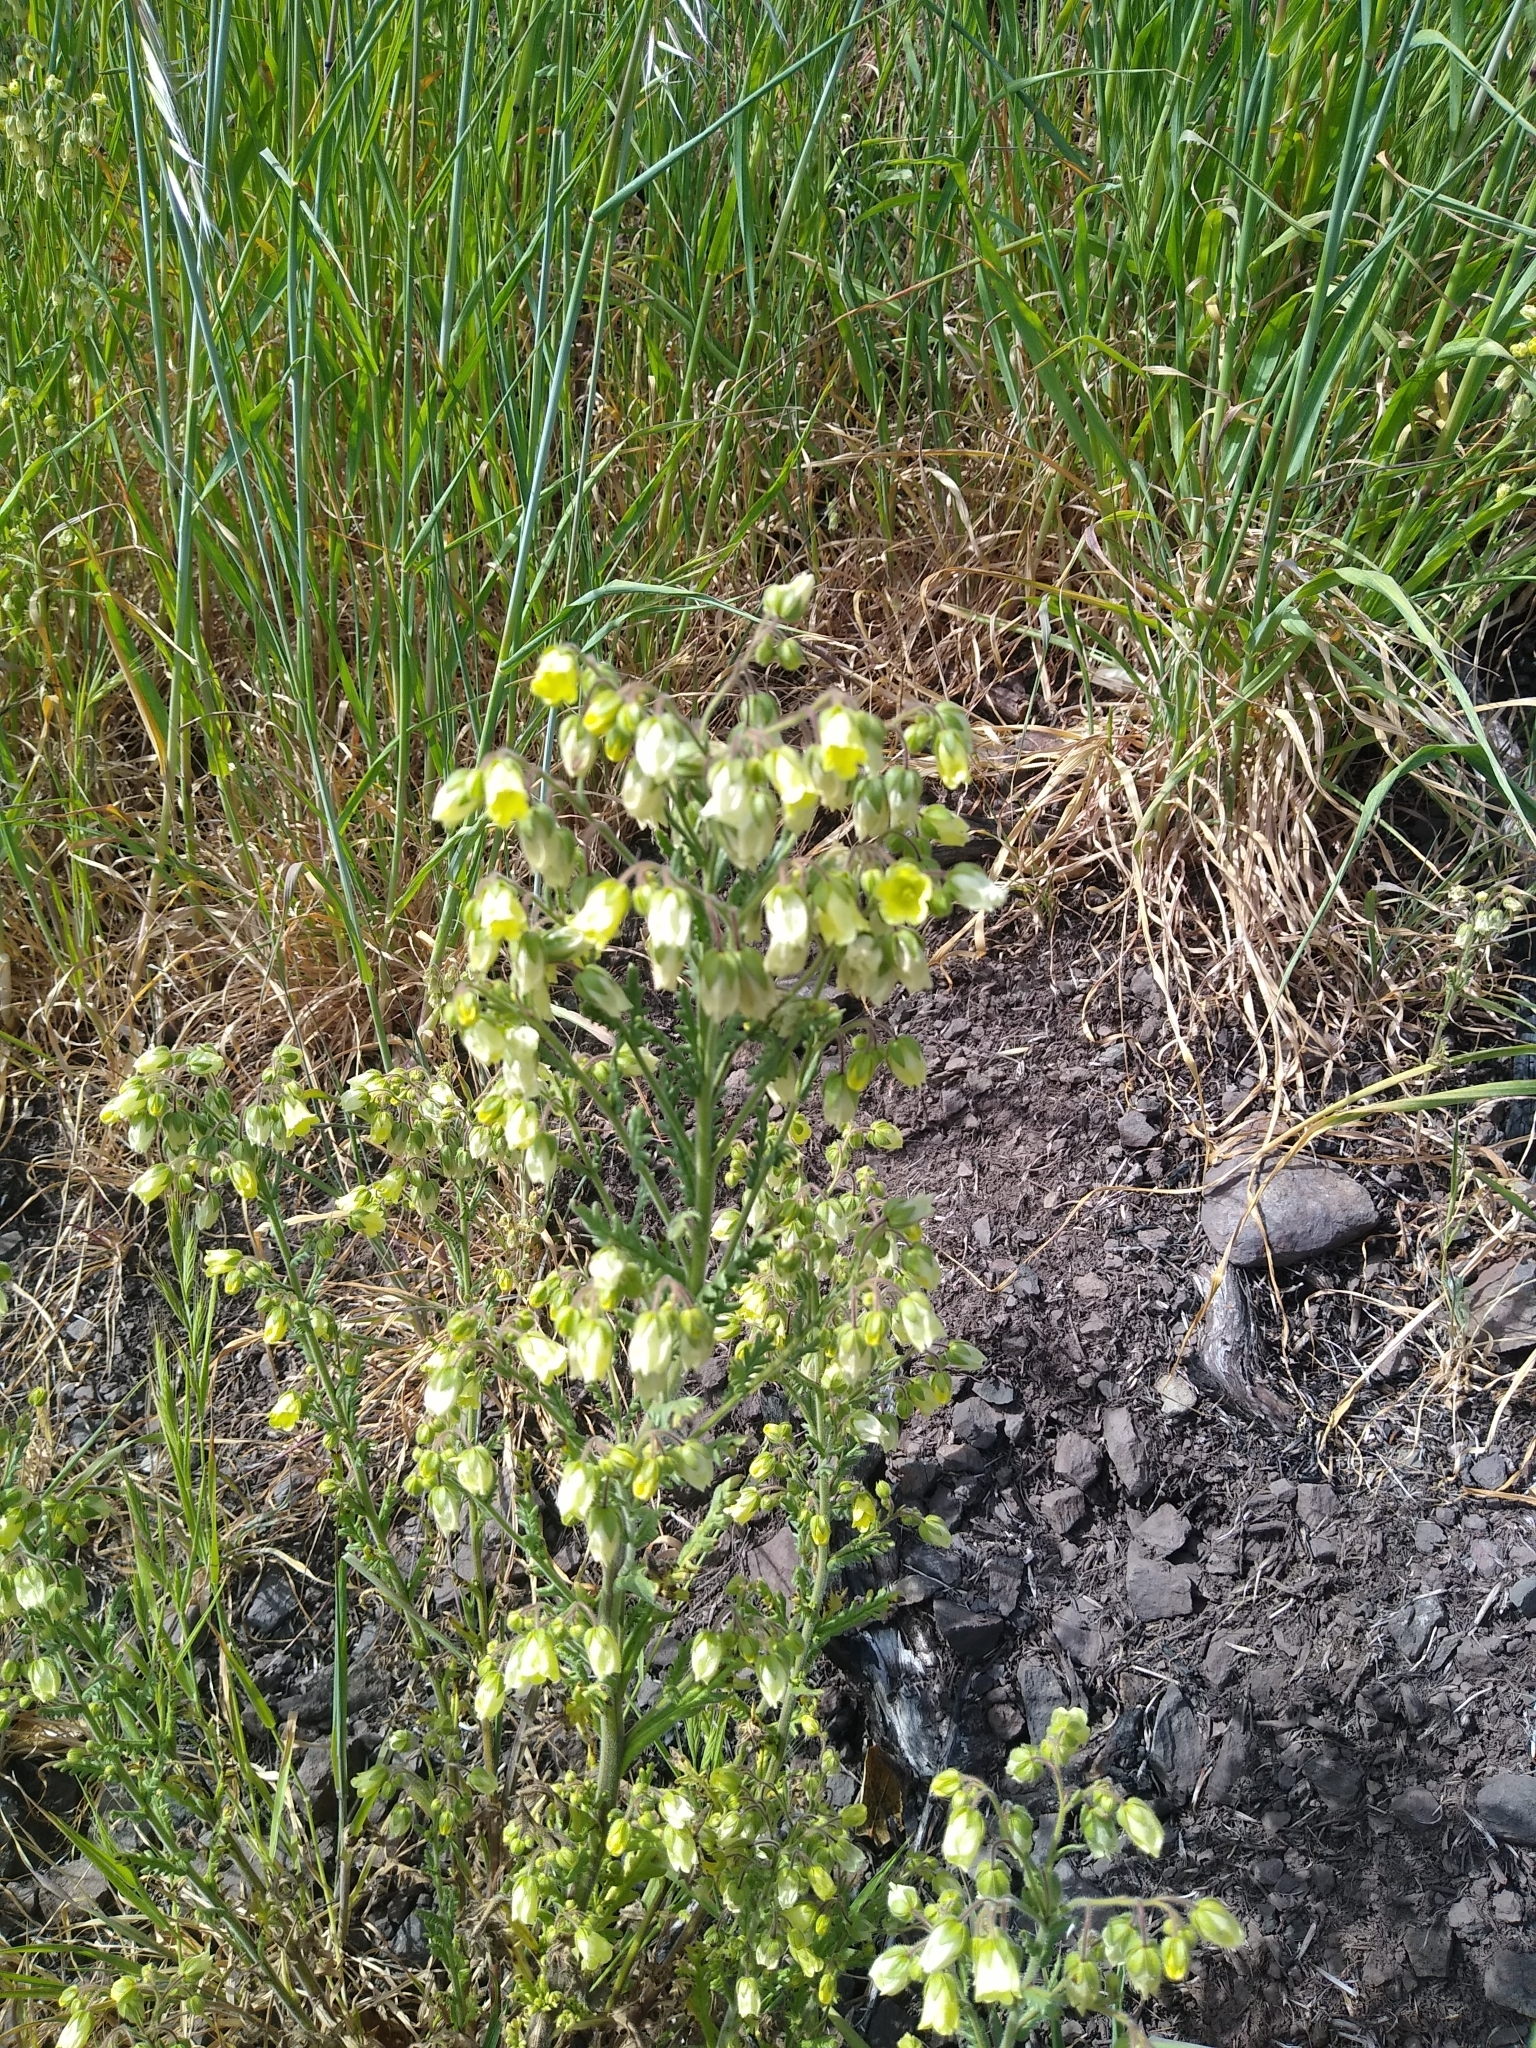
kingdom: Plantae
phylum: Tracheophyta
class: Magnoliopsida
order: Boraginales
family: Hydrophyllaceae
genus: Emmenanthe
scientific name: Emmenanthe penduliflora
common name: Whispering-bells
